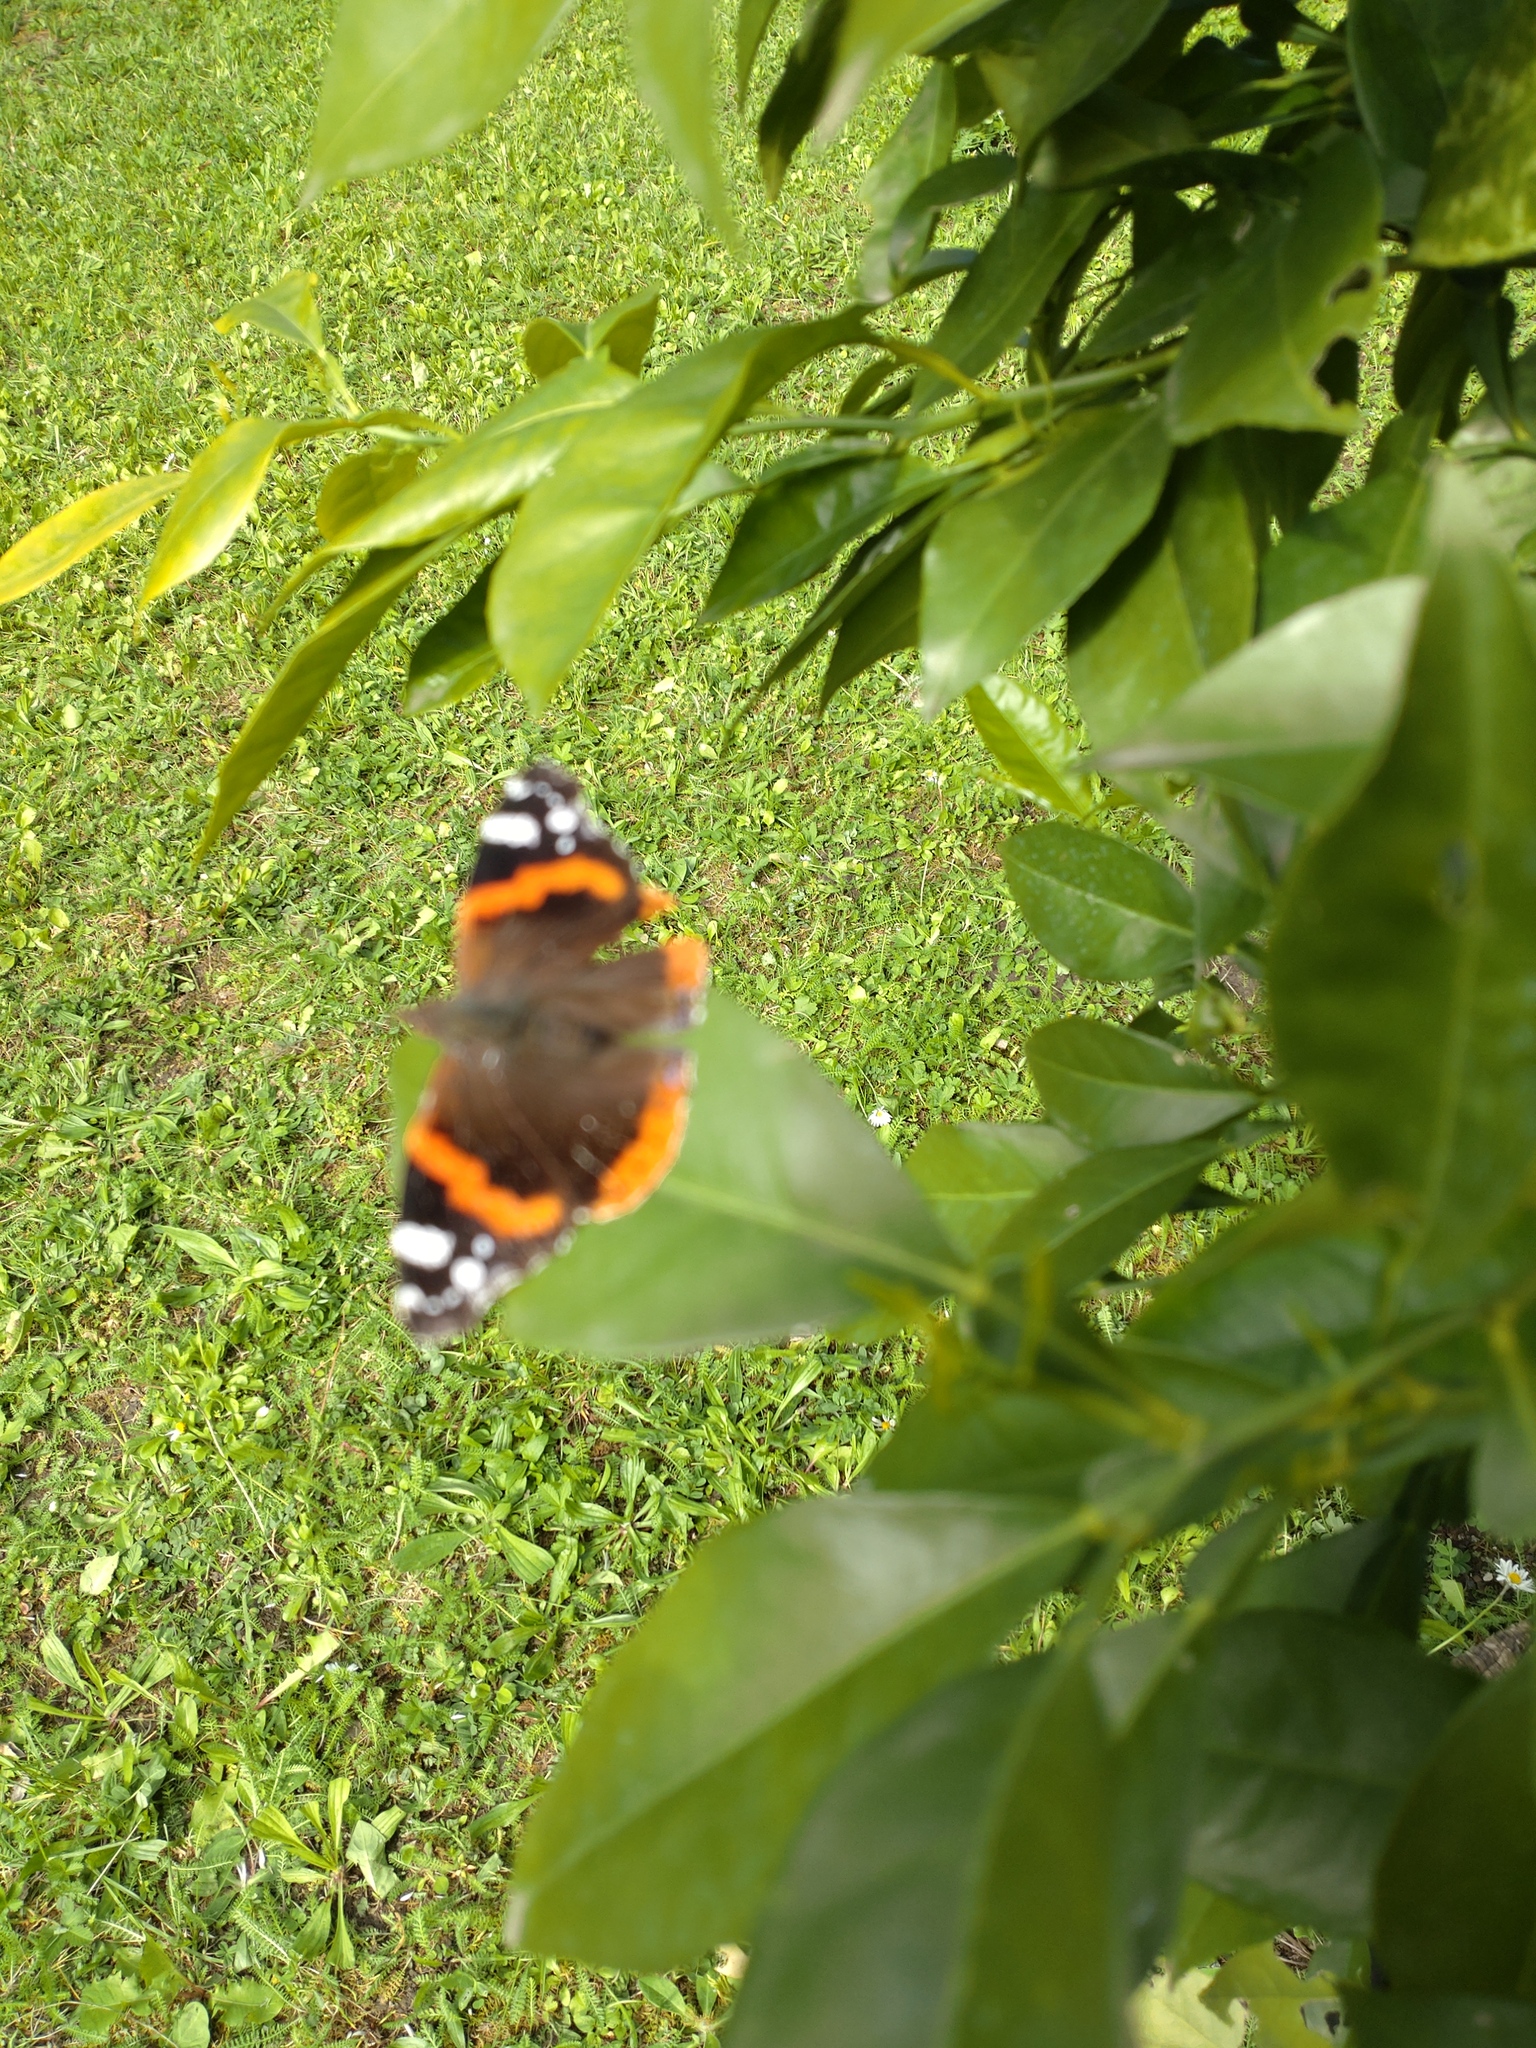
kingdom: Animalia
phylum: Arthropoda
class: Insecta
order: Lepidoptera
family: Nymphalidae
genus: Vanessa
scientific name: Vanessa atalanta
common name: Red admiral
